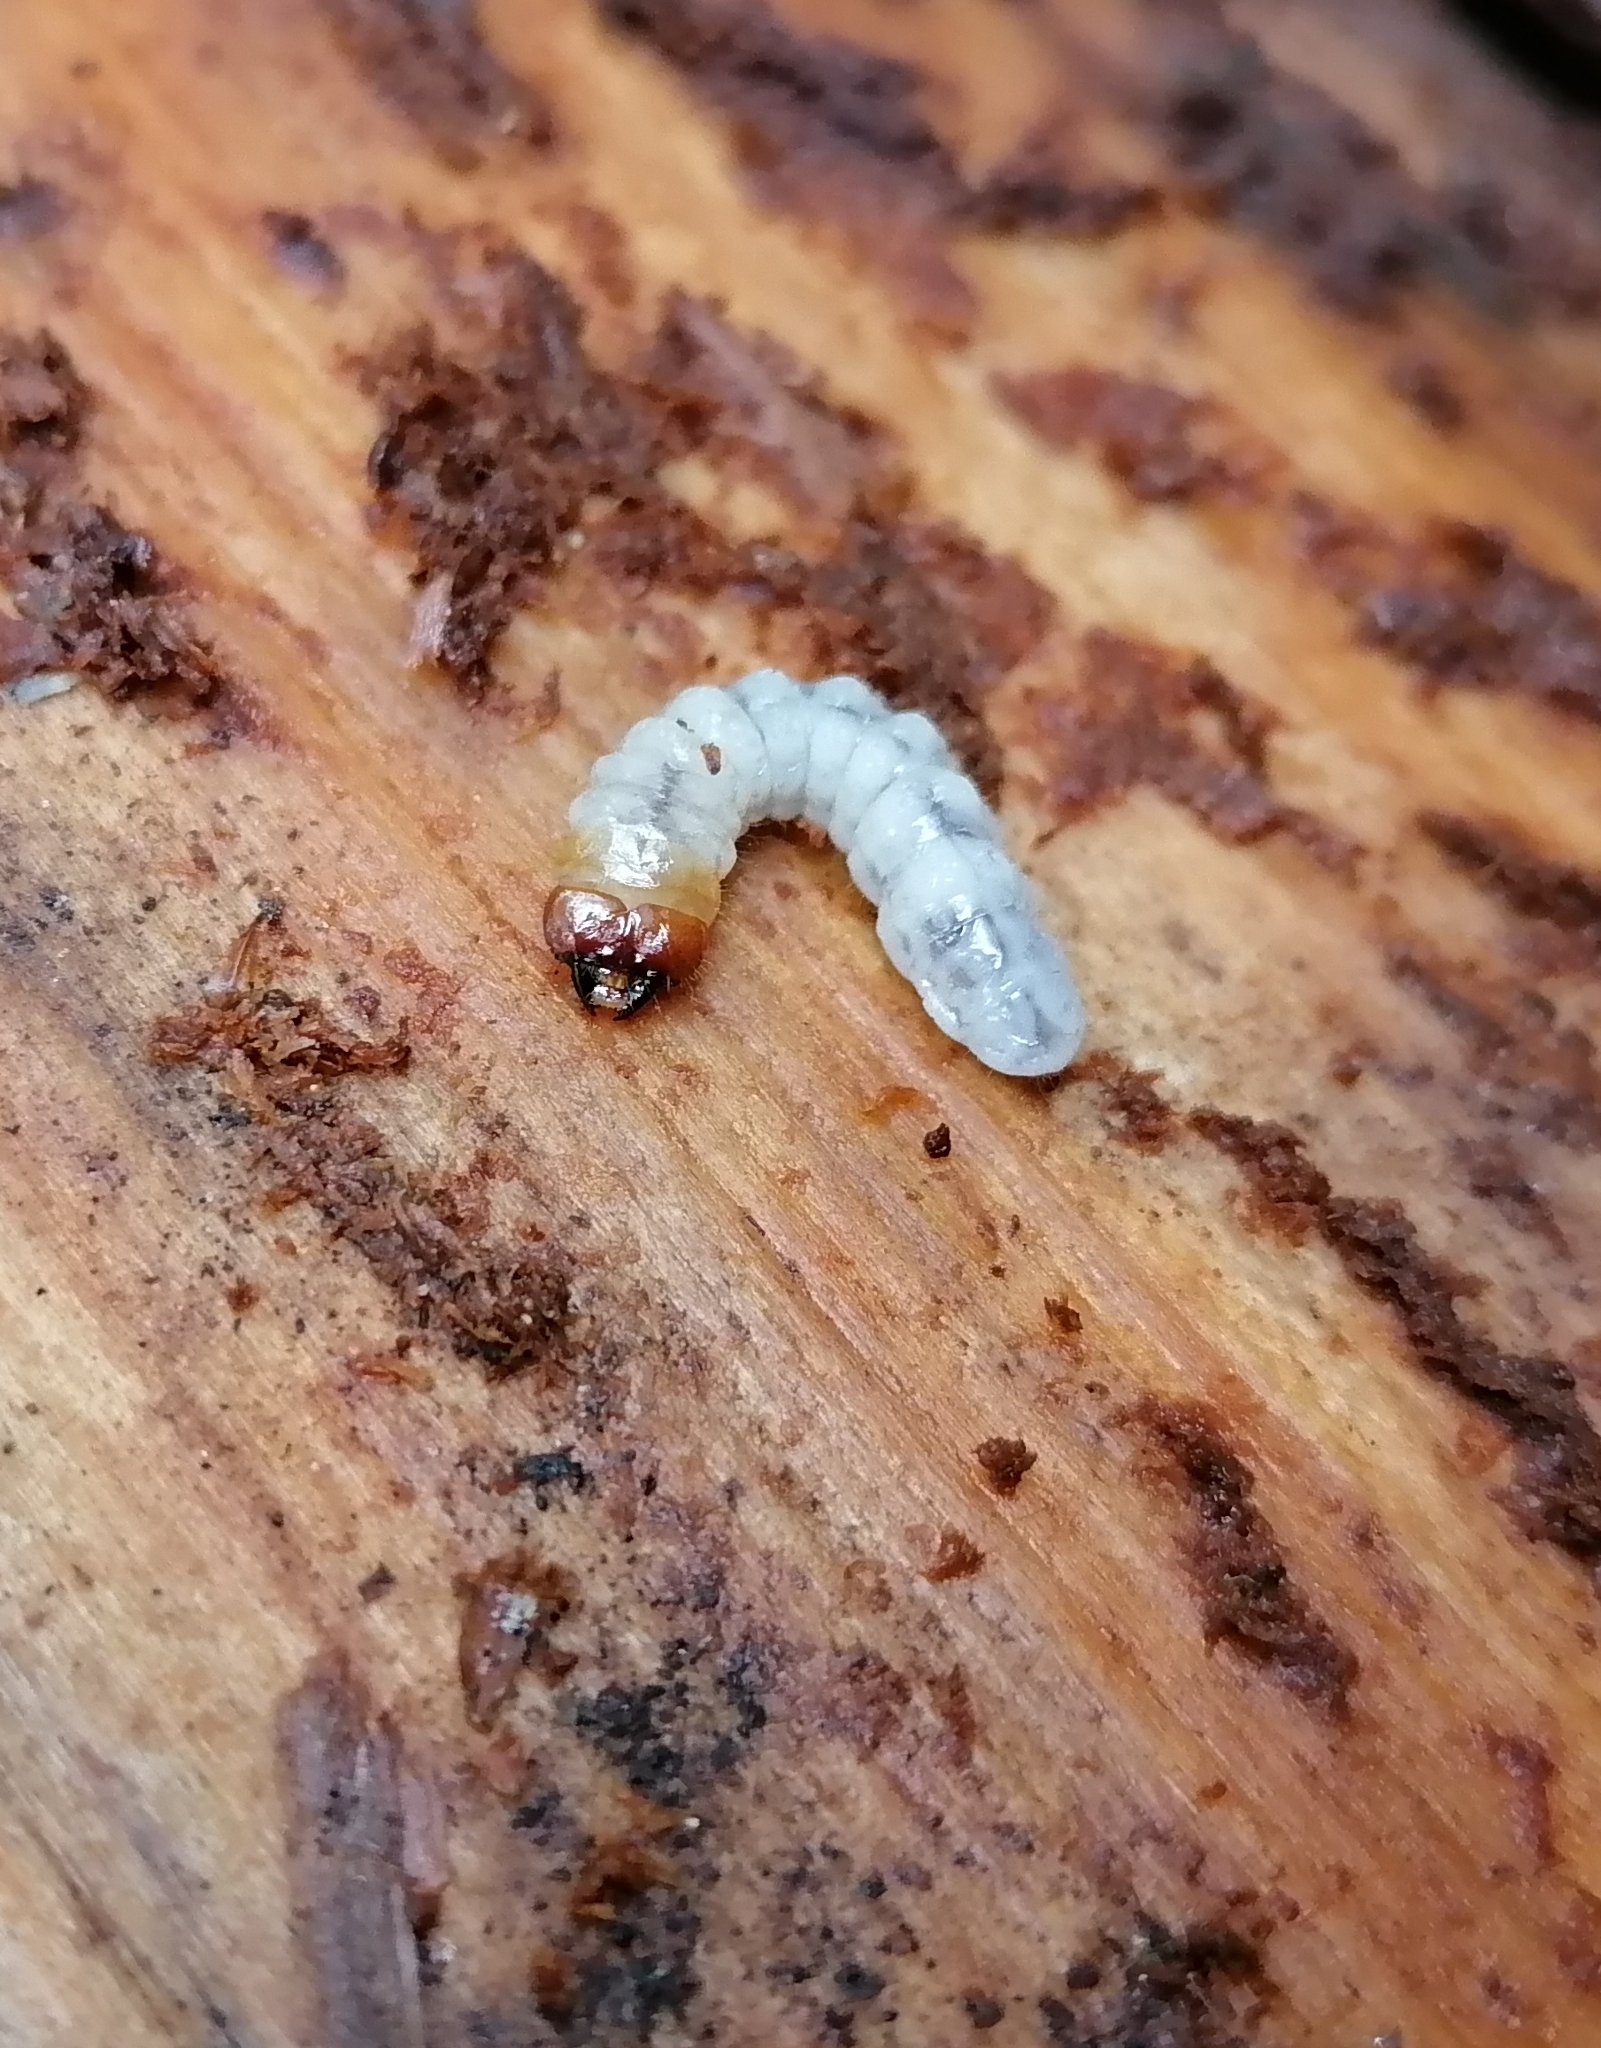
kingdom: Animalia
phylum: Arthropoda
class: Insecta
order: Coleoptera
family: Cerambycidae
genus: Rhagium
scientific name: Rhagium inquisitor
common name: Ribbed pine borer
